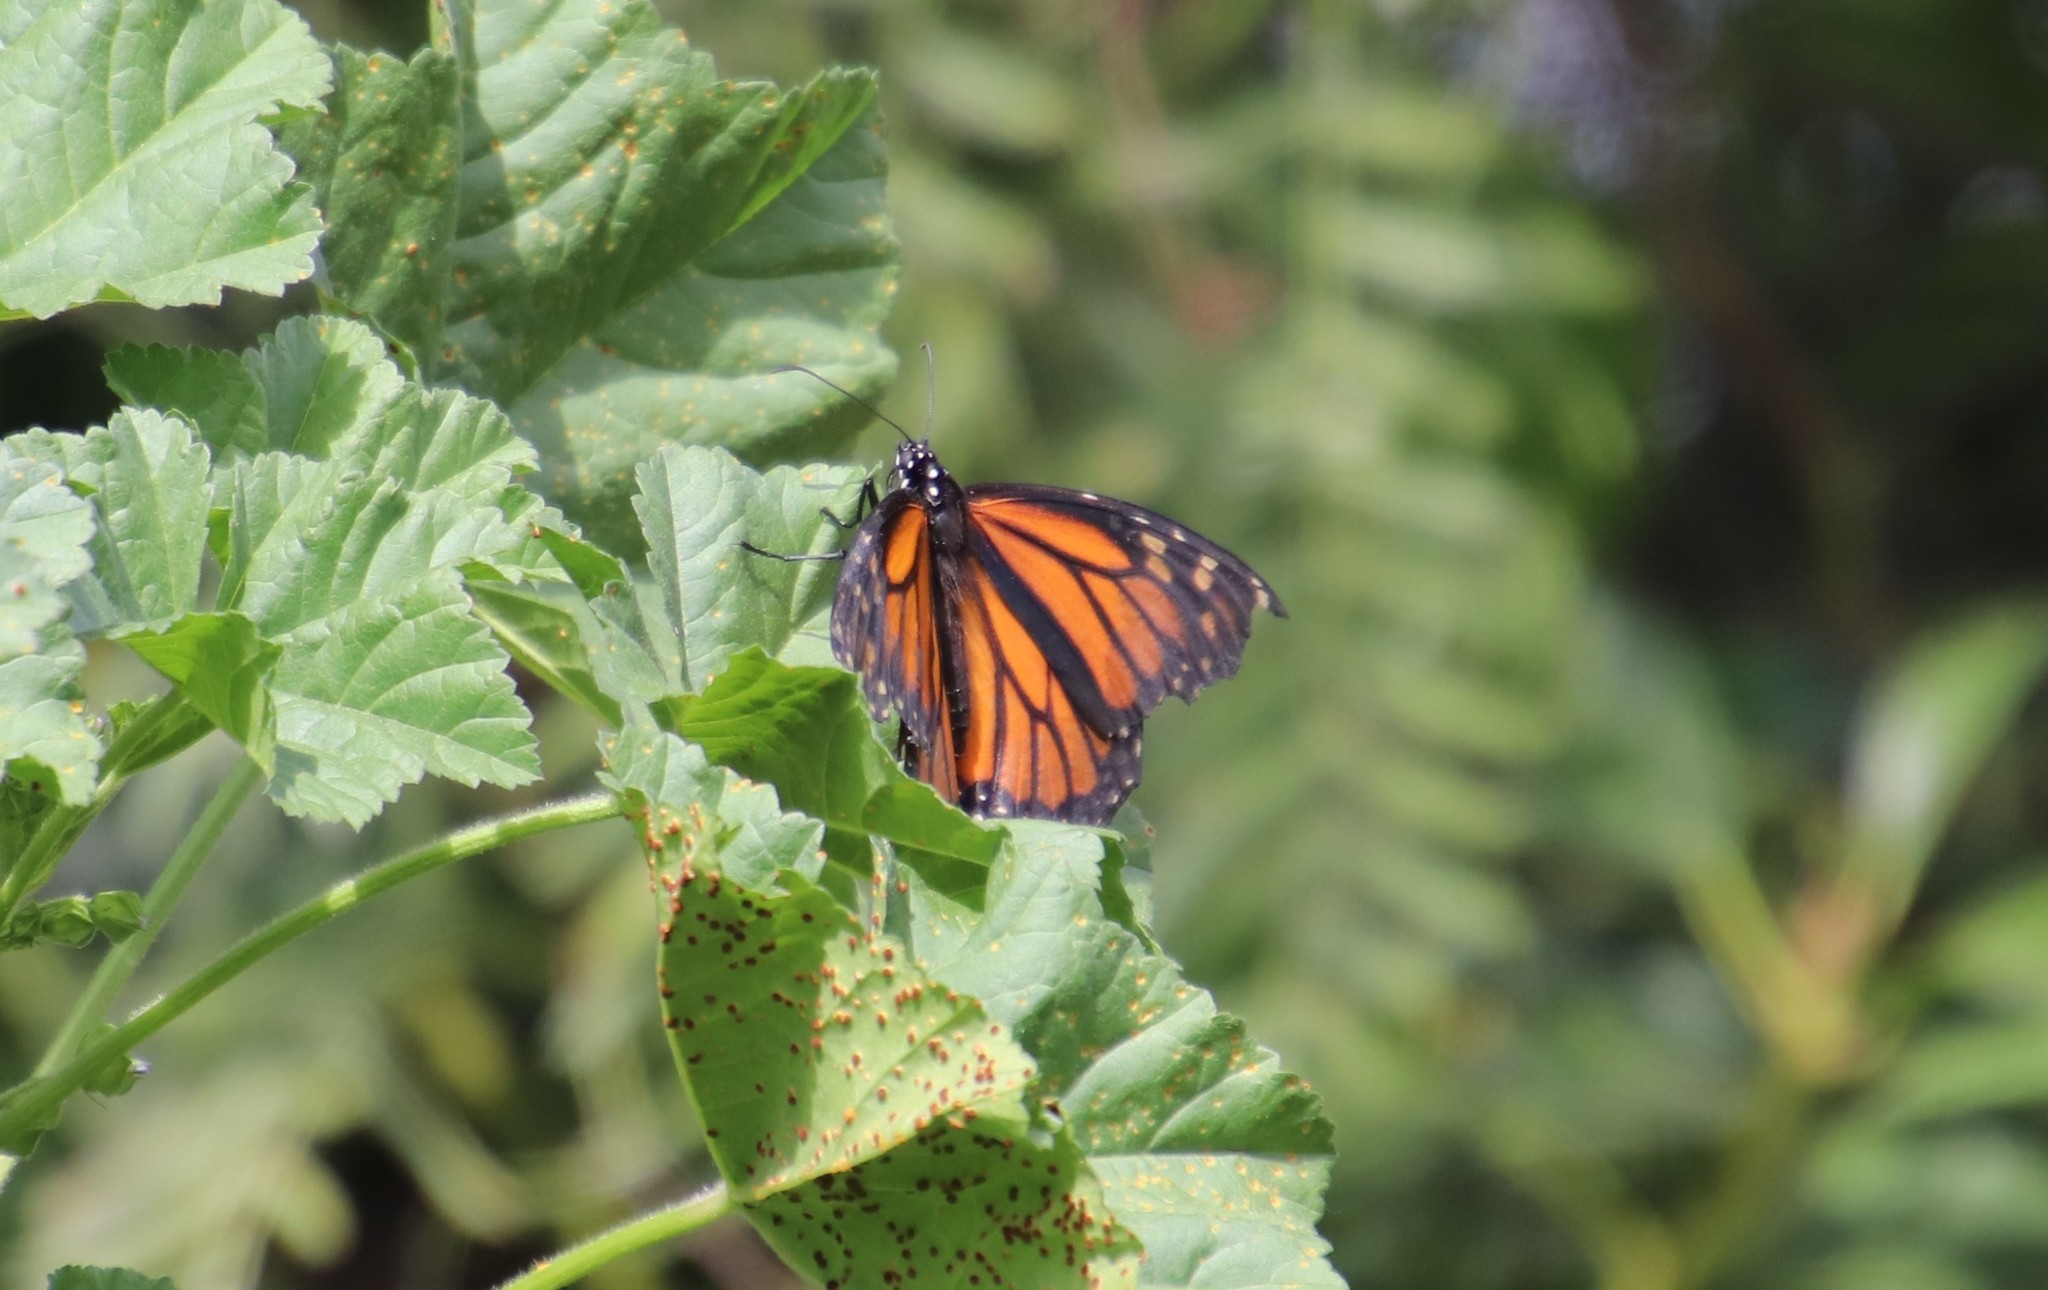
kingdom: Animalia
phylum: Arthropoda
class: Insecta
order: Lepidoptera
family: Nymphalidae
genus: Danaus
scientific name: Danaus plexippus
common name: Monarch
